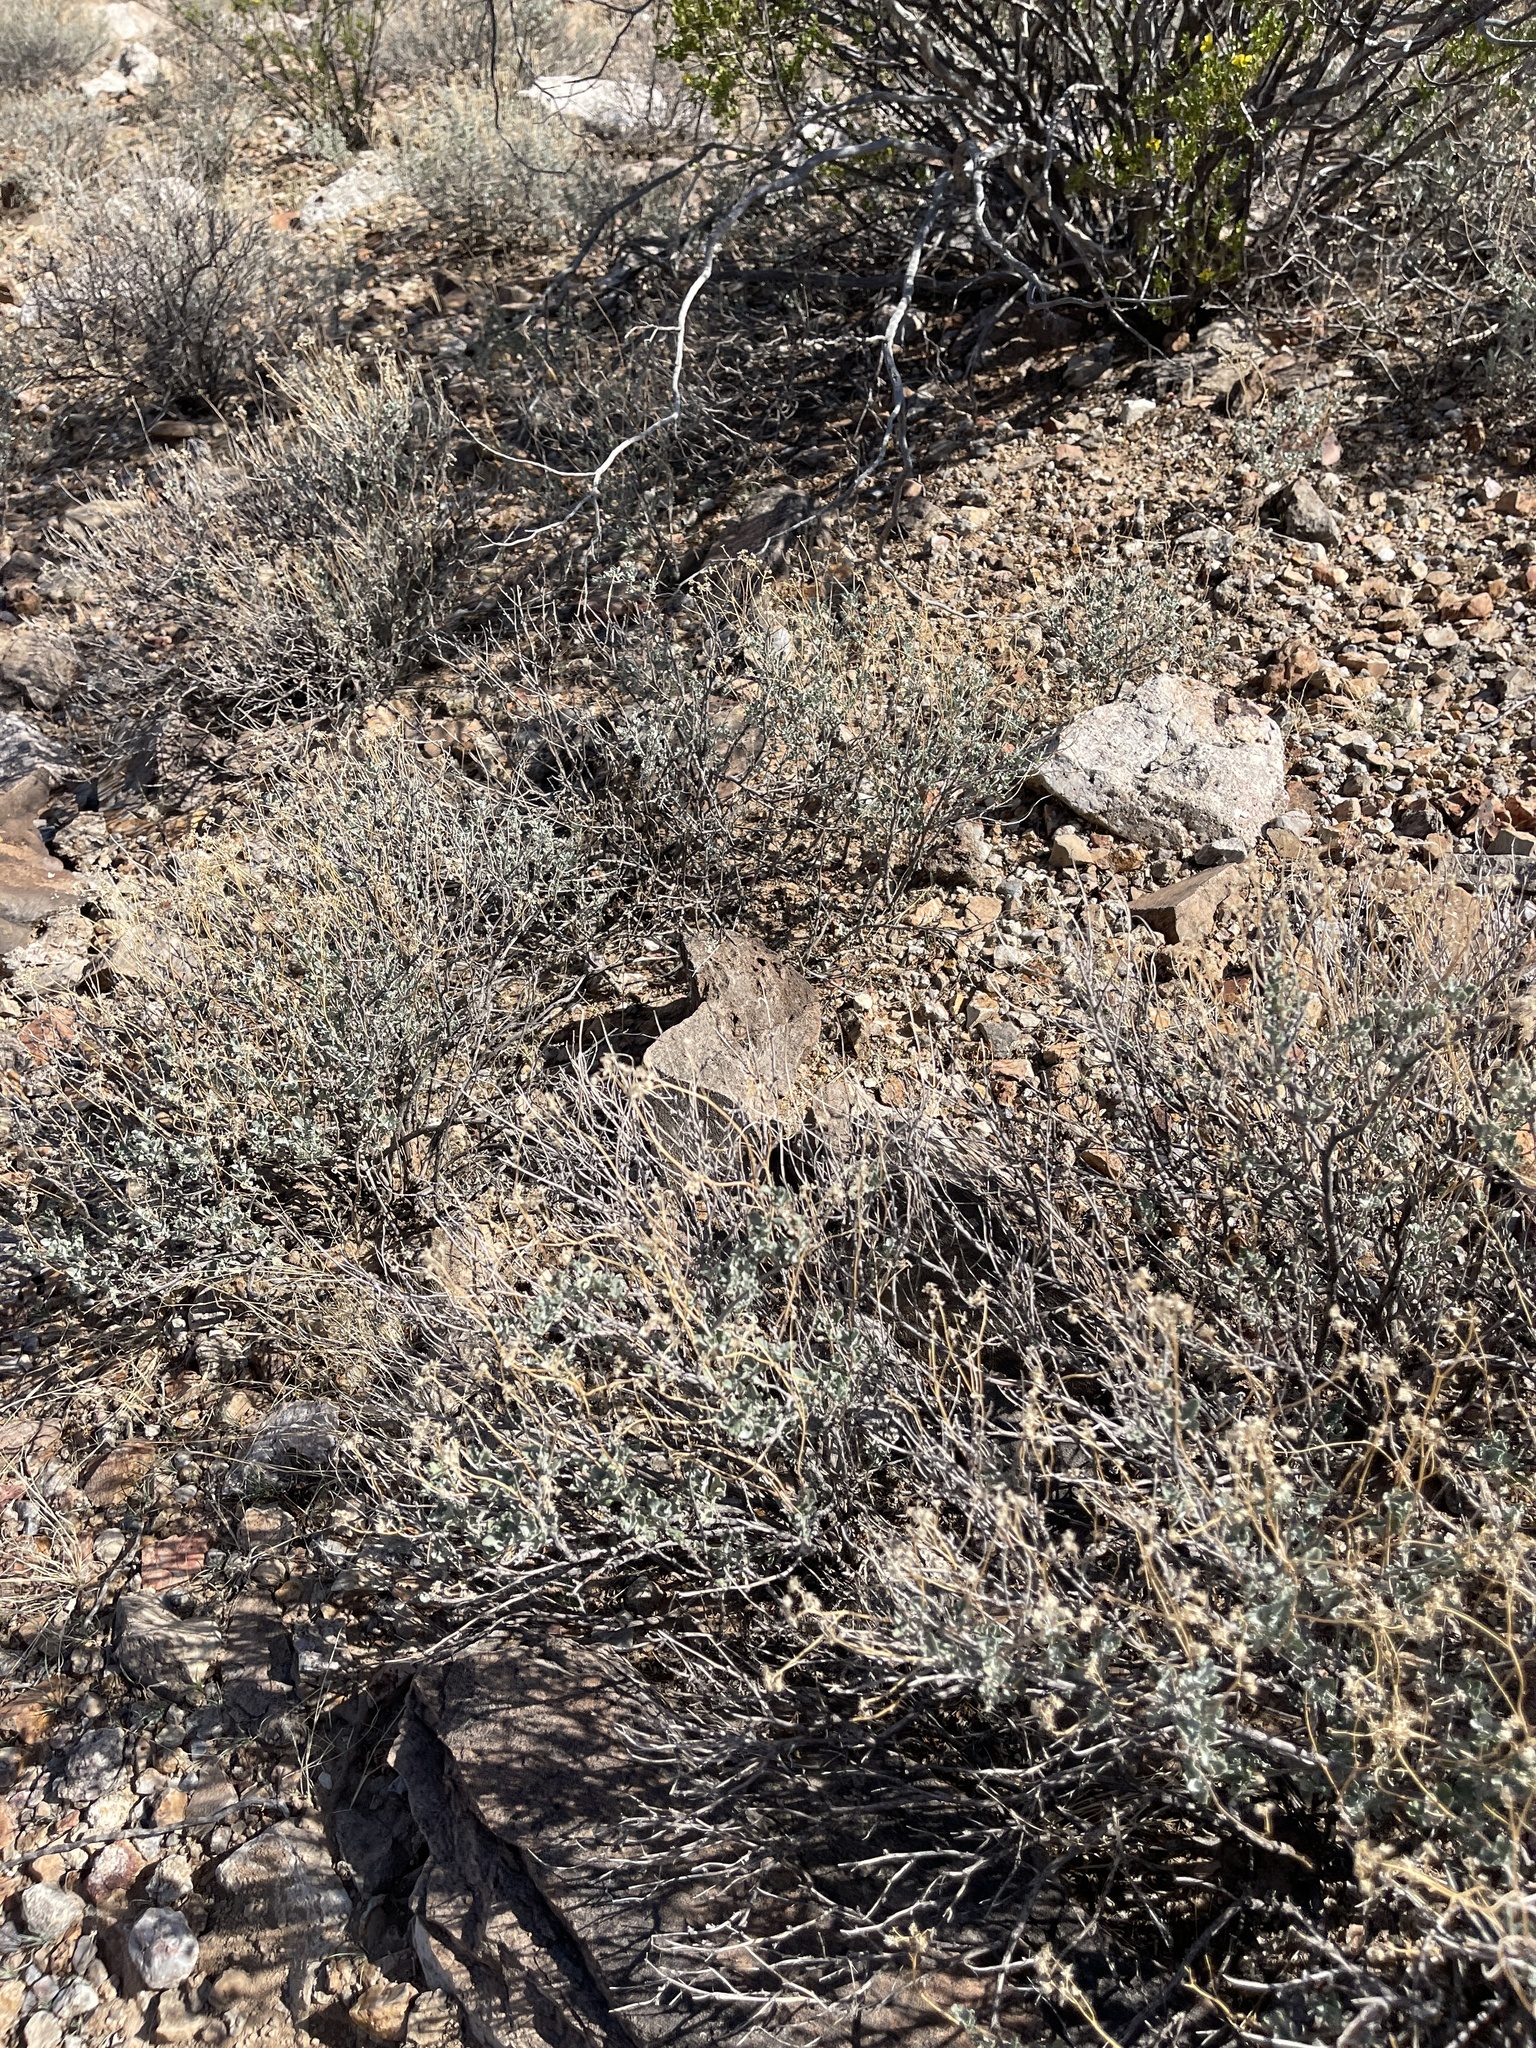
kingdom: Plantae
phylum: Tracheophyta
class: Magnoliopsida
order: Asterales
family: Asteraceae
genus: Parthenium
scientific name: Parthenium incanum
